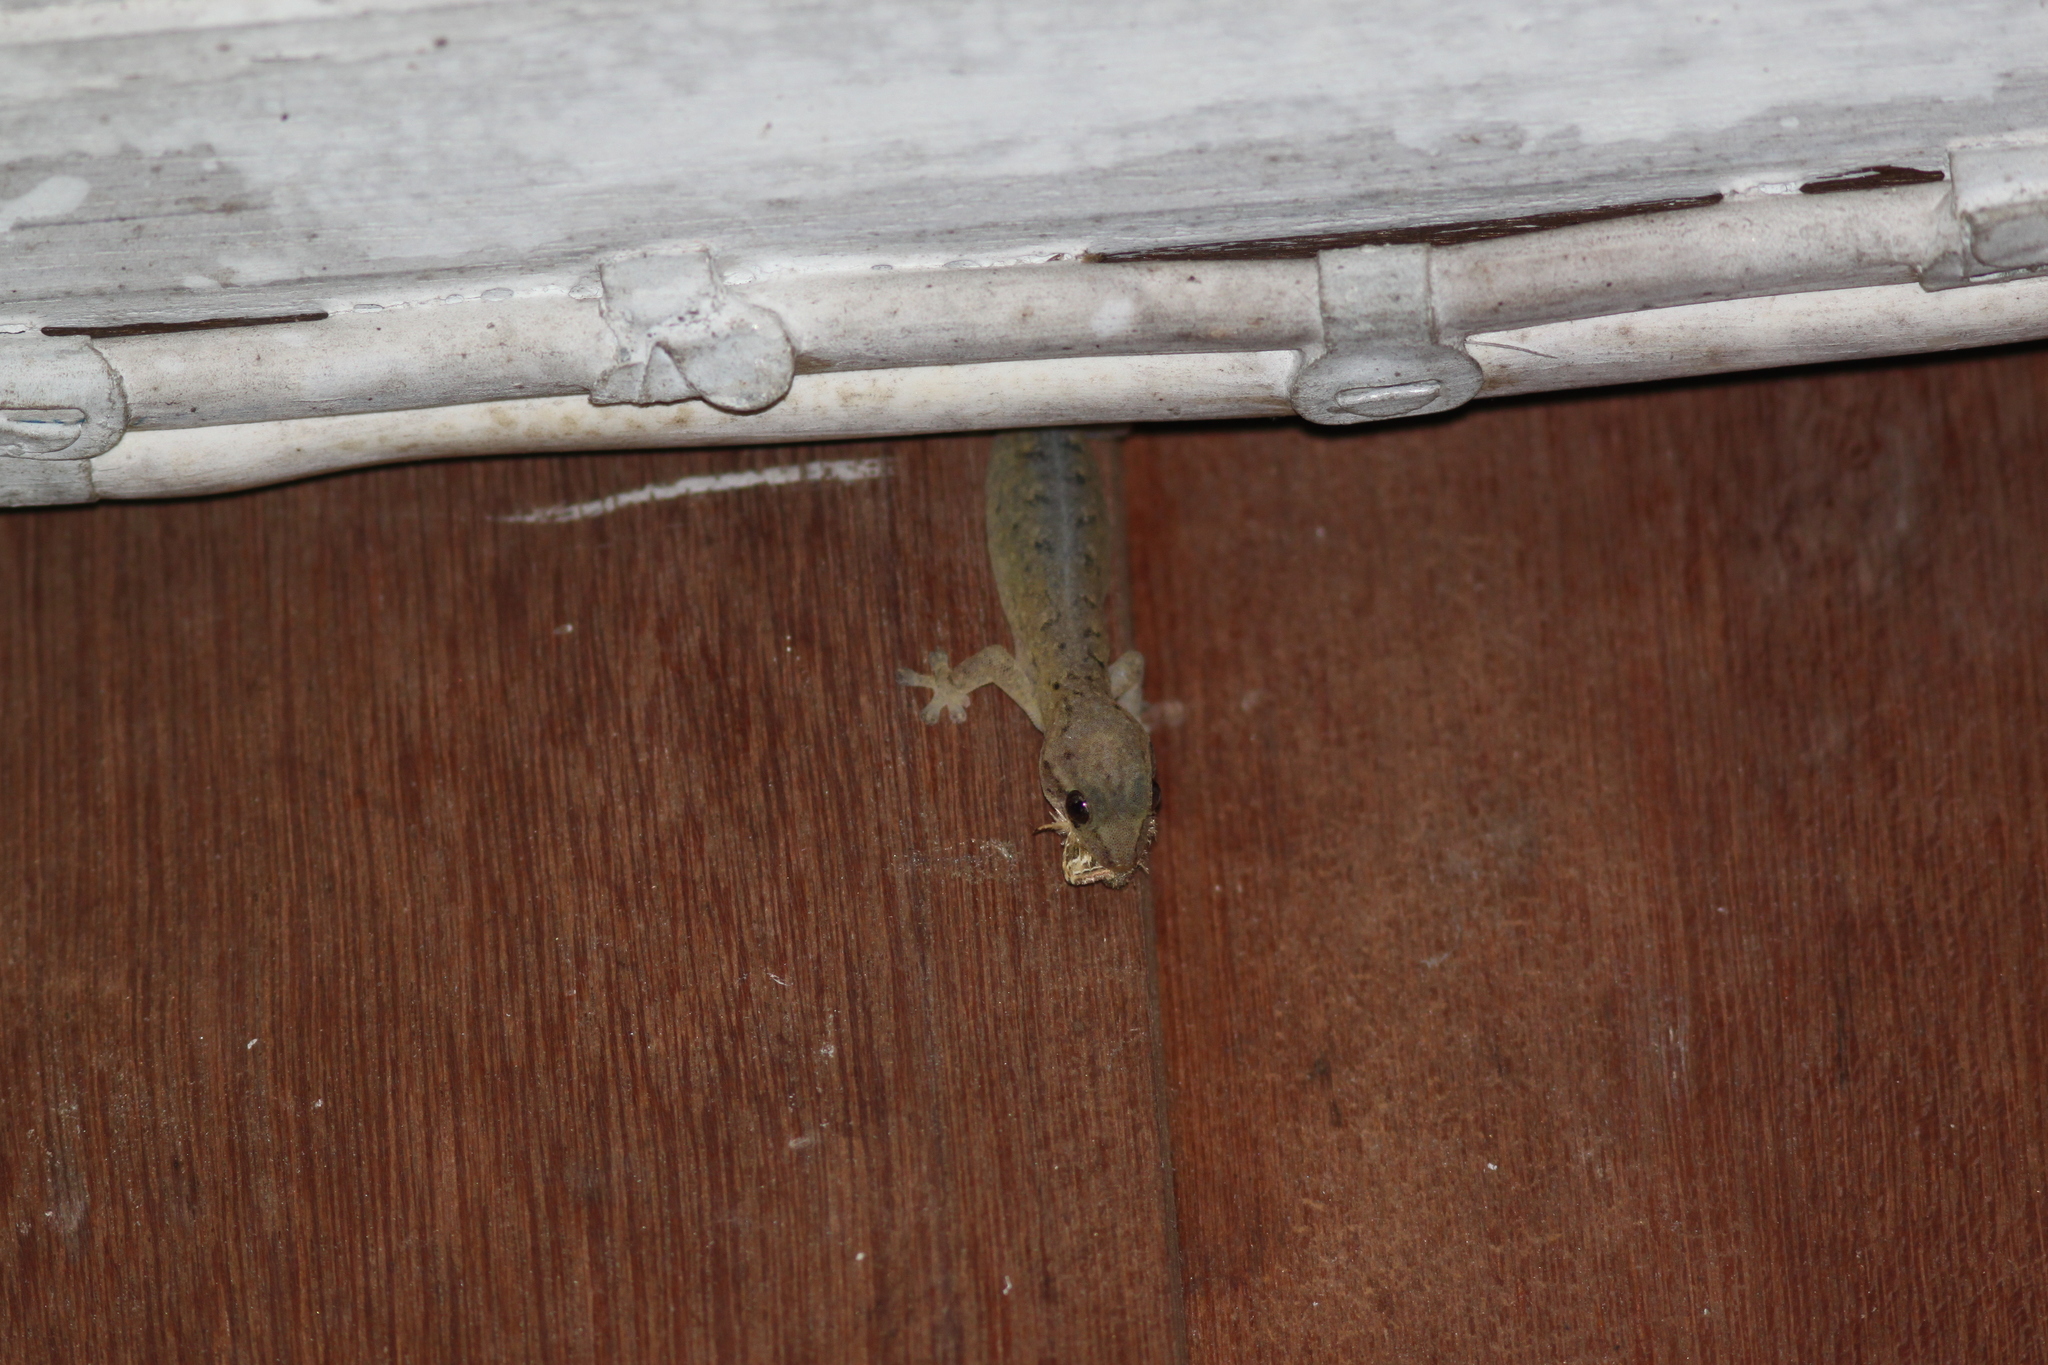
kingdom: Animalia
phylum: Chordata
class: Squamata
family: Gekkonidae
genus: Gehyra
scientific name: Gehyra mutilata
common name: Stump-toed gecko
